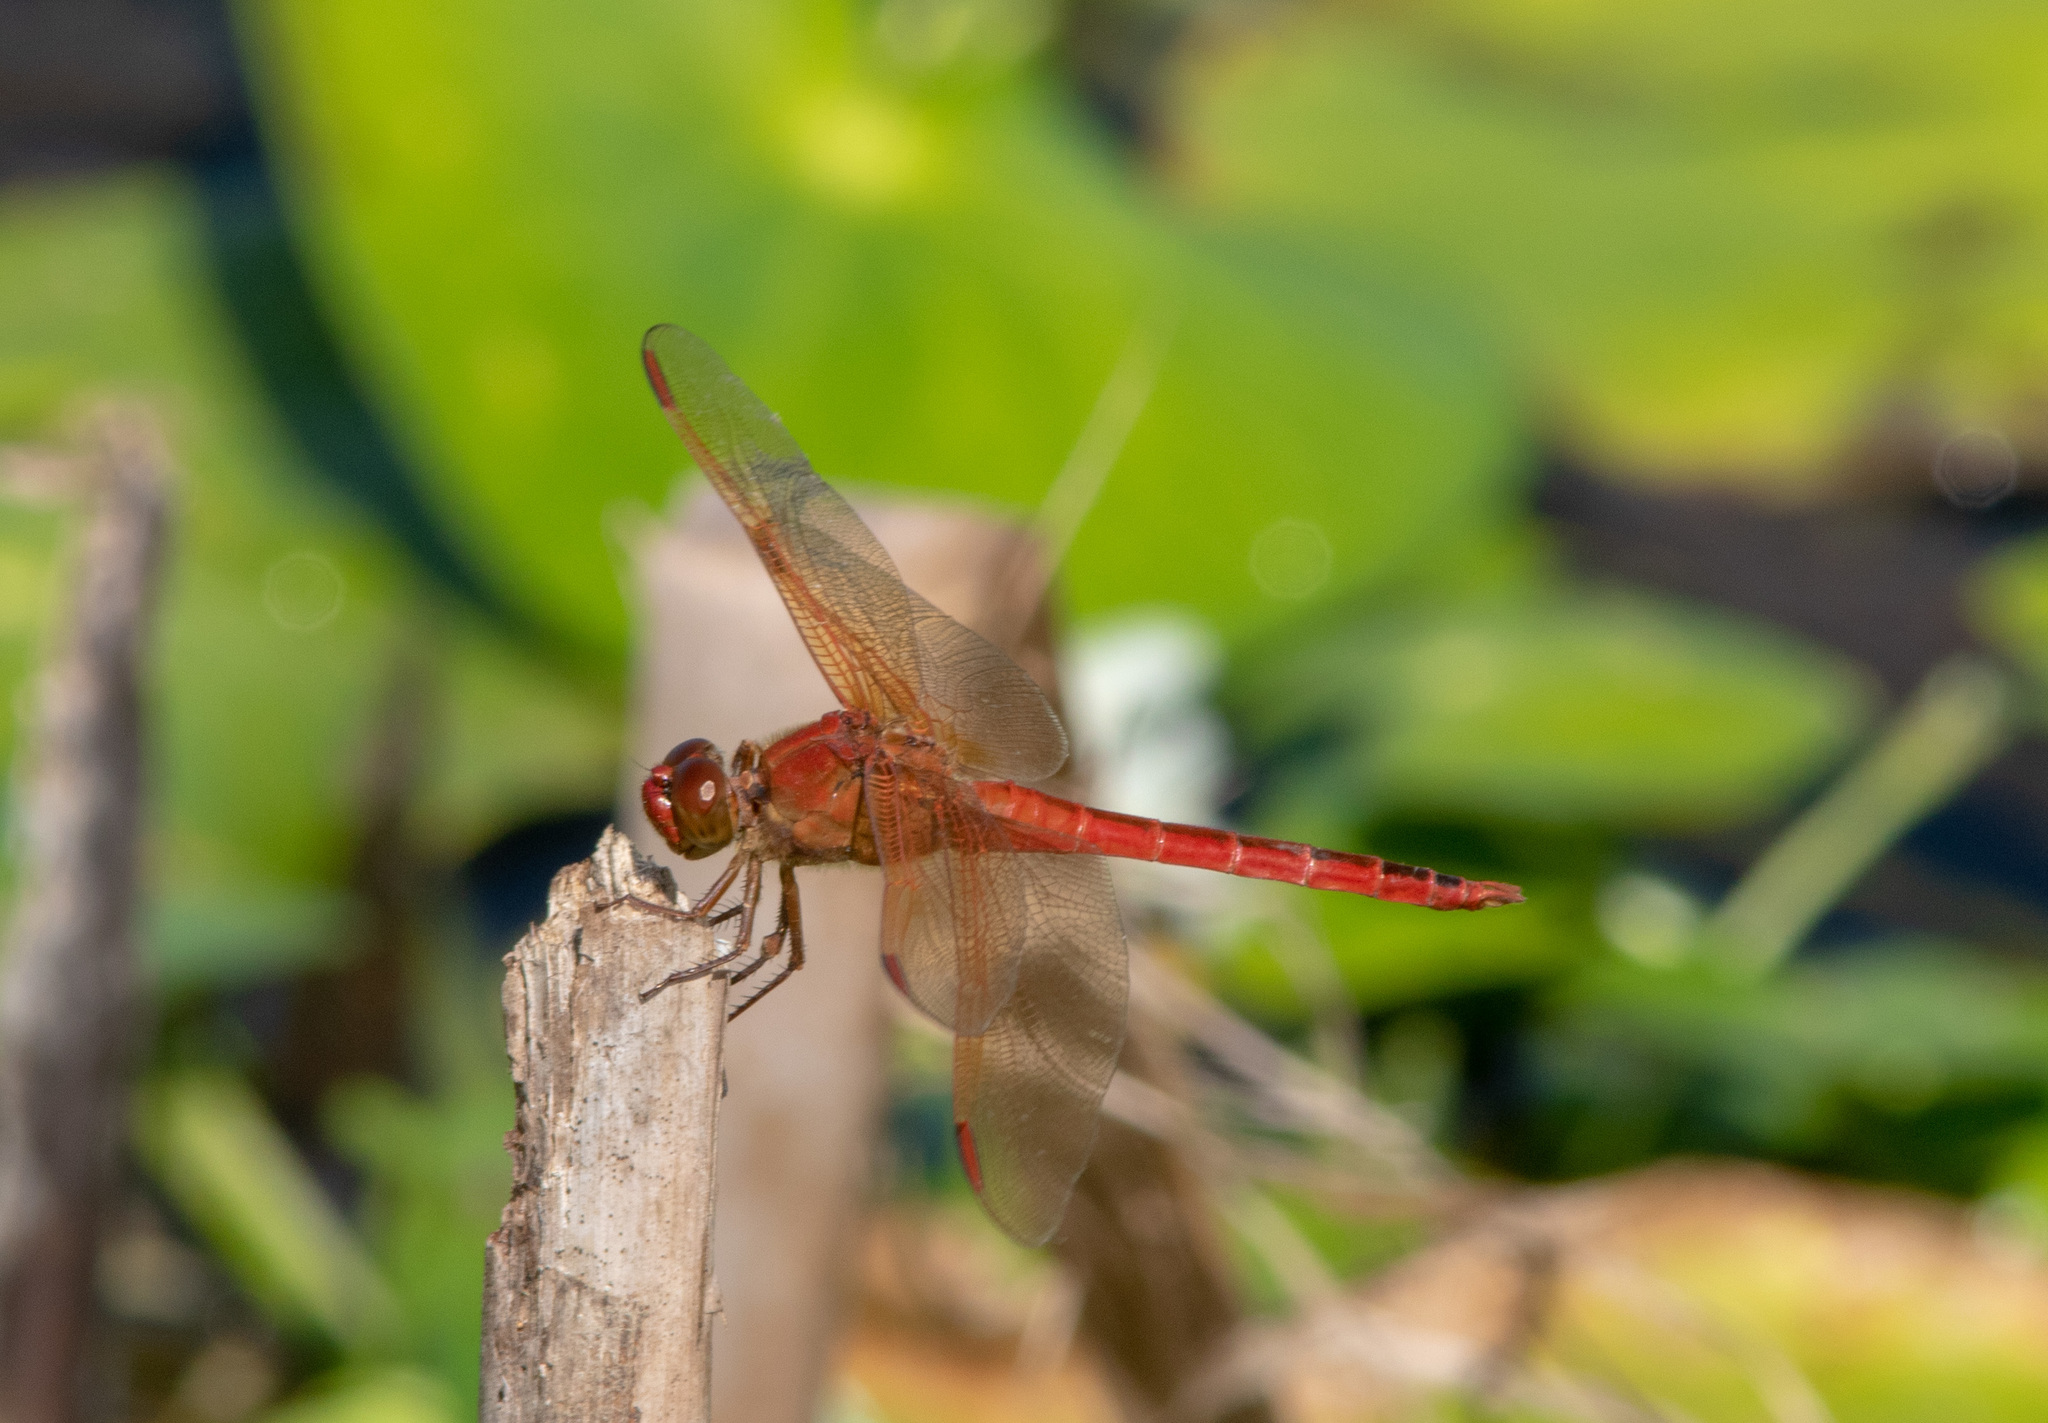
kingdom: Animalia
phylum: Arthropoda
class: Insecta
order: Odonata
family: Libellulidae
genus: Libellula
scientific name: Libellula needhami
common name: Needham's skimmer
